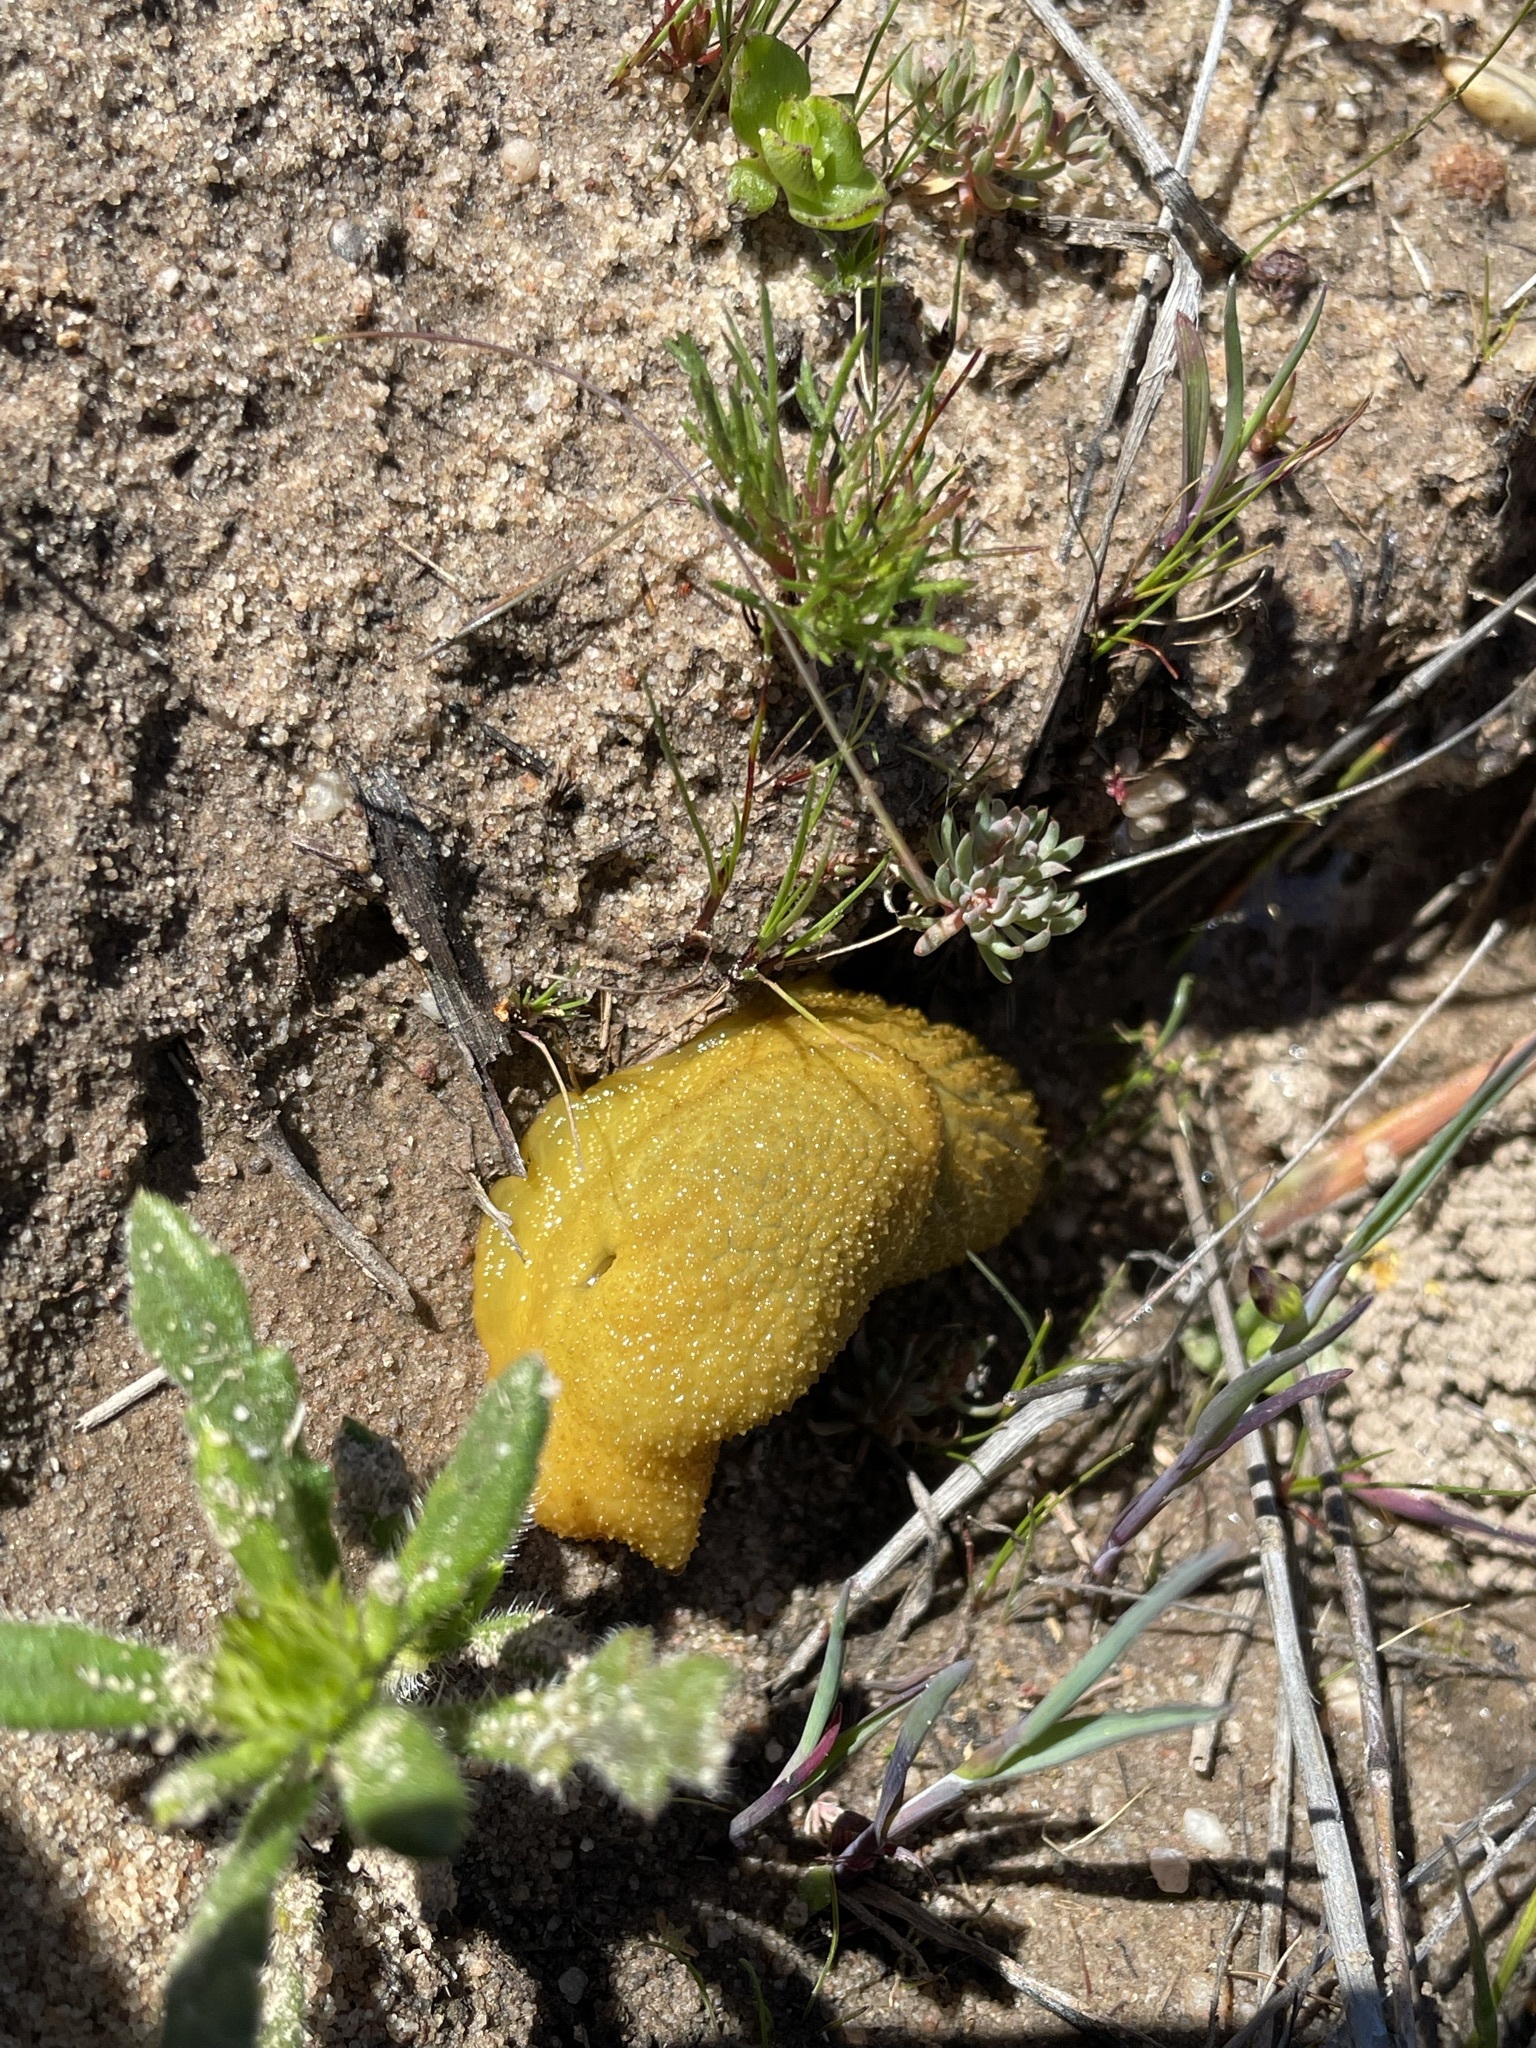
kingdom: Animalia
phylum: Mollusca
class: Gastropoda
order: Stylommatophora
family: Oopeltidae
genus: Oopelta
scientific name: Oopelta granulosa
